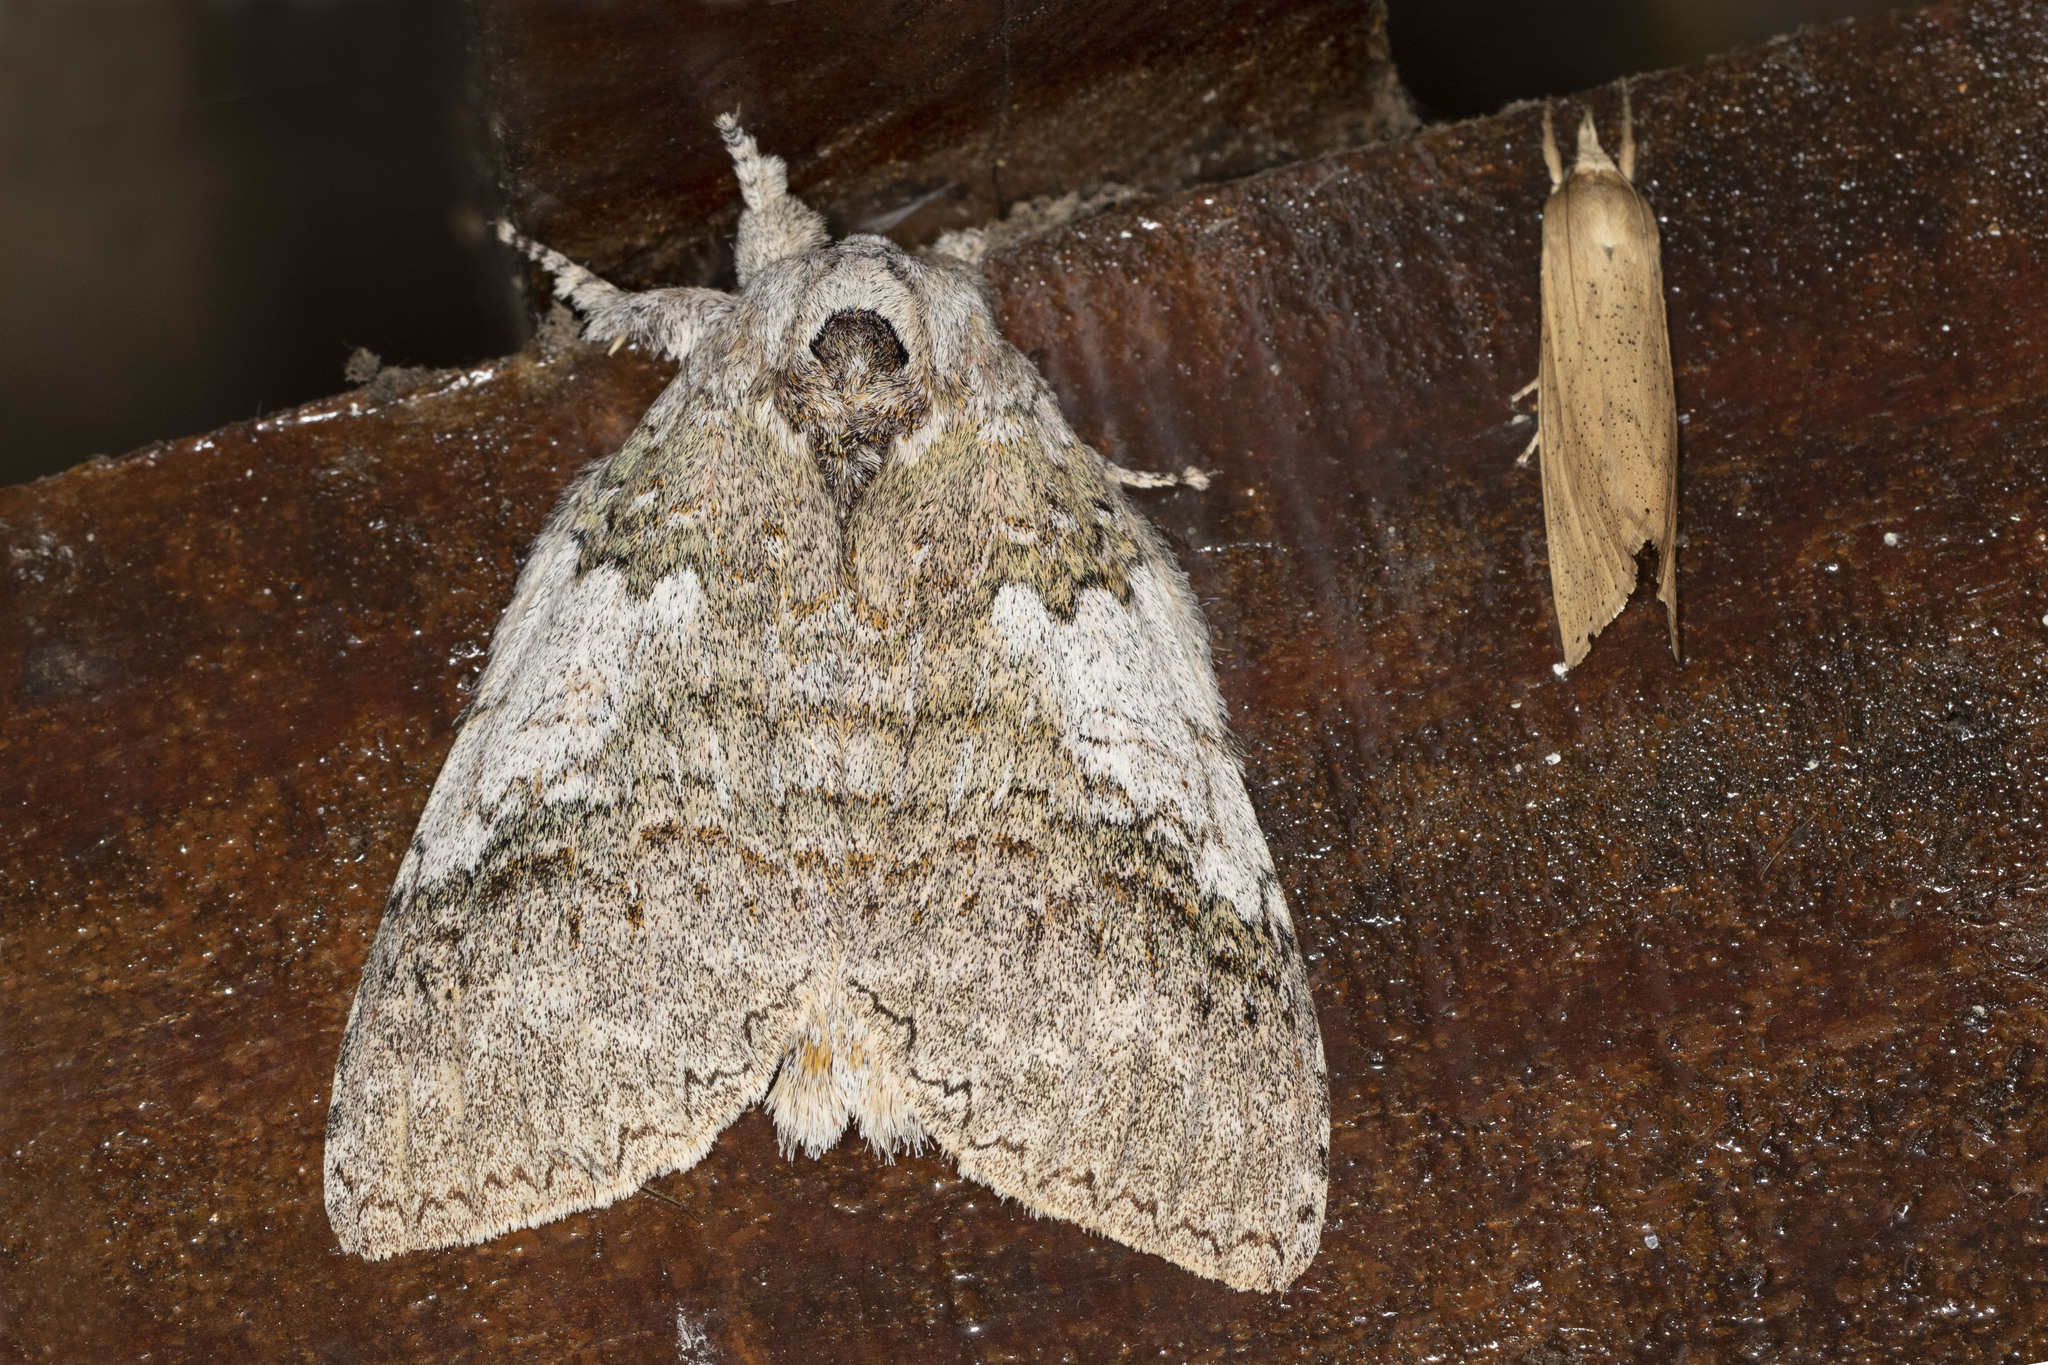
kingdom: Animalia
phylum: Arthropoda
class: Insecta
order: Lepidoptera
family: Notodontidae
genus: Anurocampa
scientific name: Anurocampa mingens
